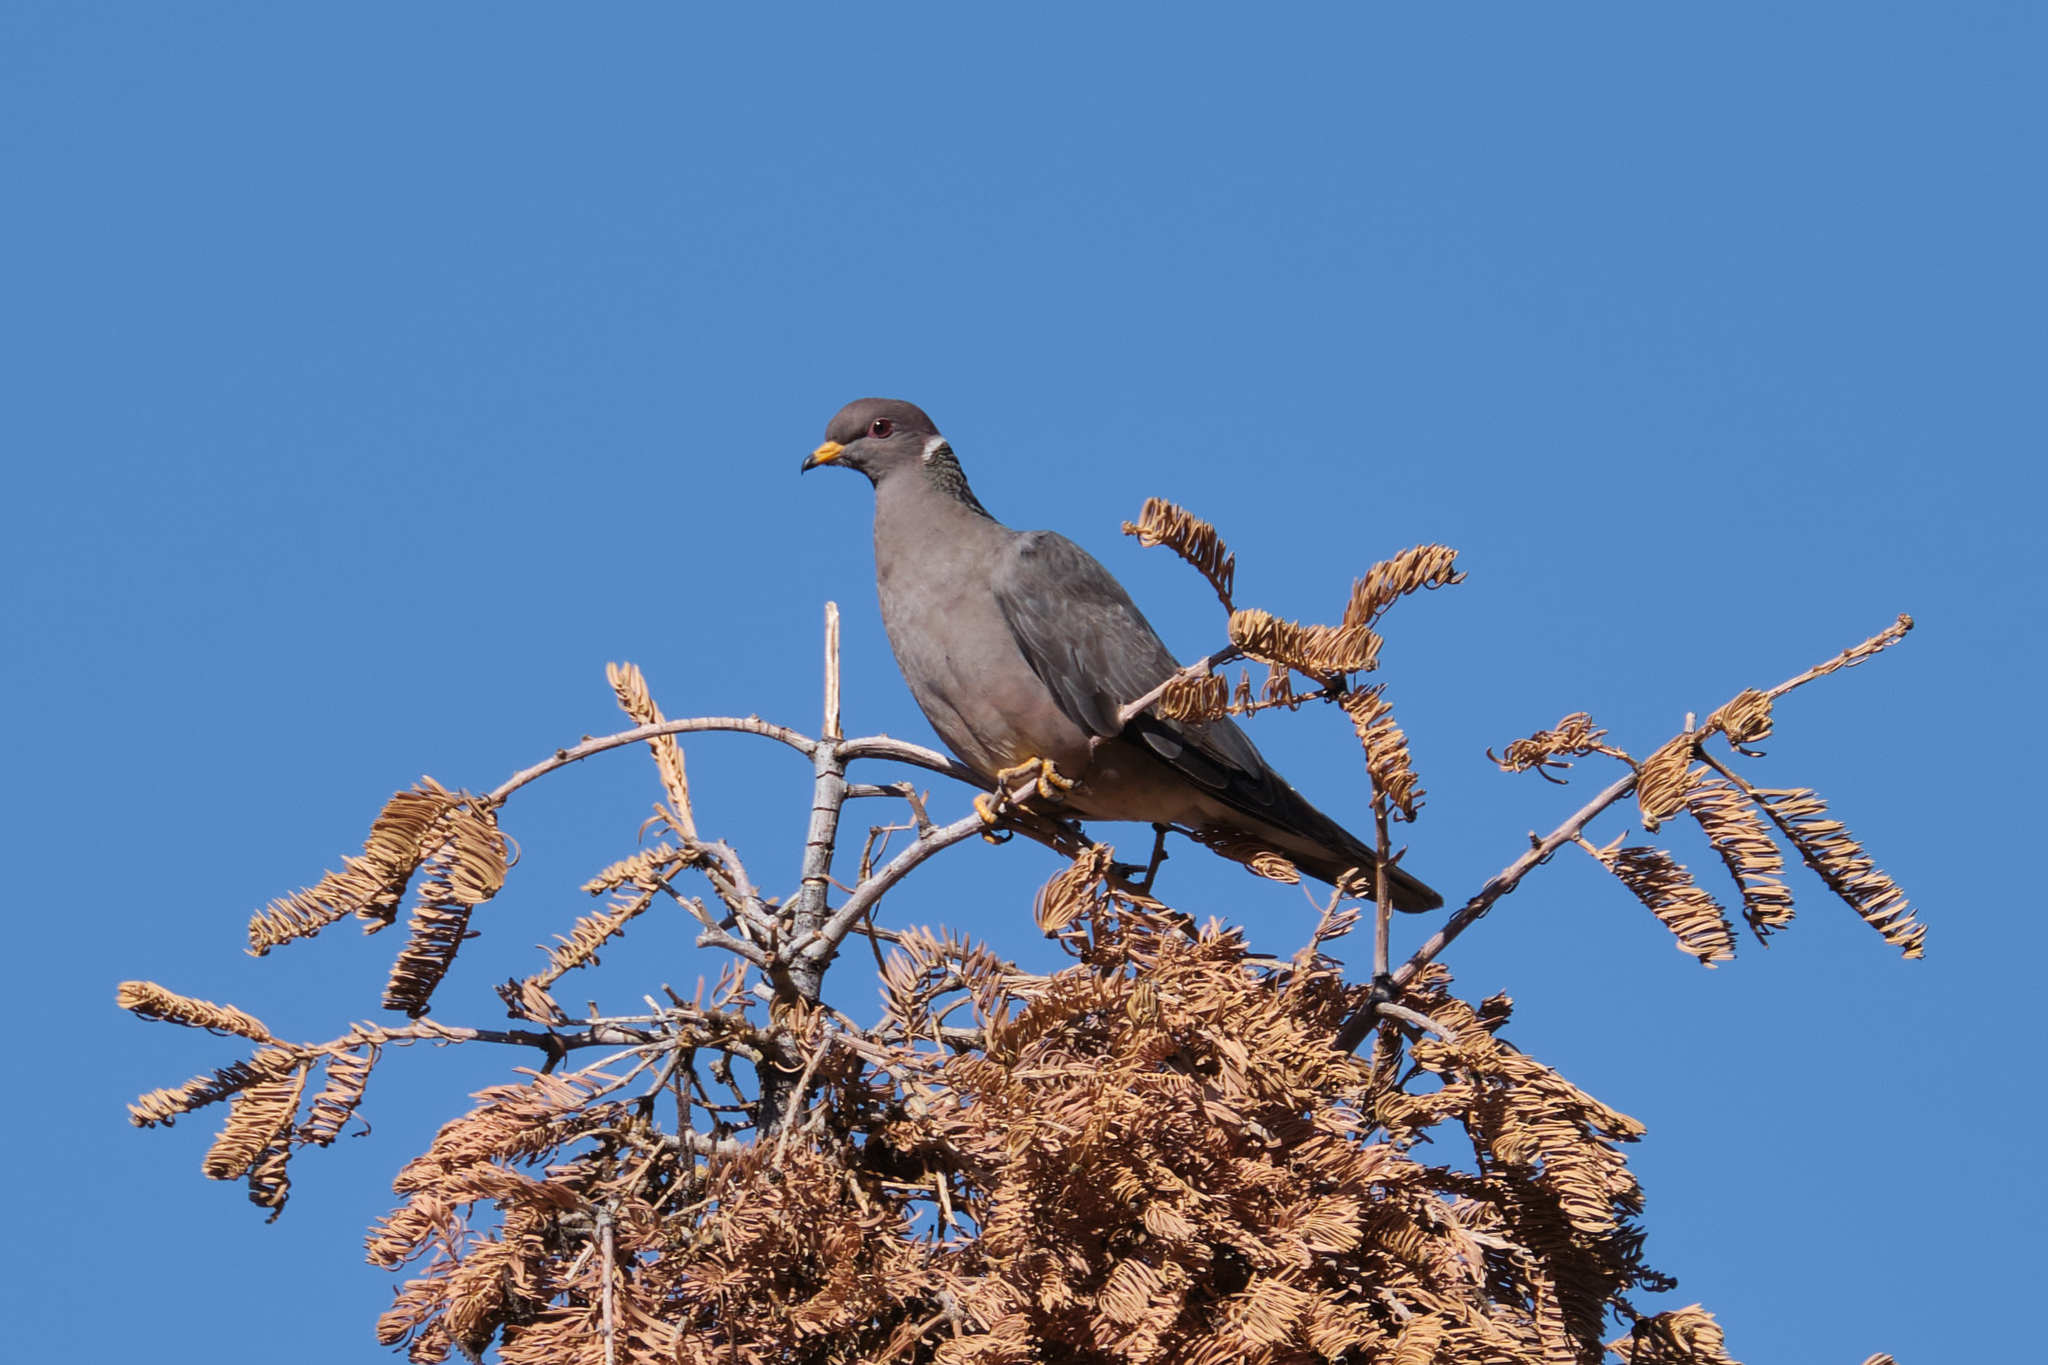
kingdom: Animalia
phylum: Chordata
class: Aves
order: Columbiformes
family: Columbidae
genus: Patagioenas
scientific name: Patagioenas fasciata
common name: Band-tailed pigeon
